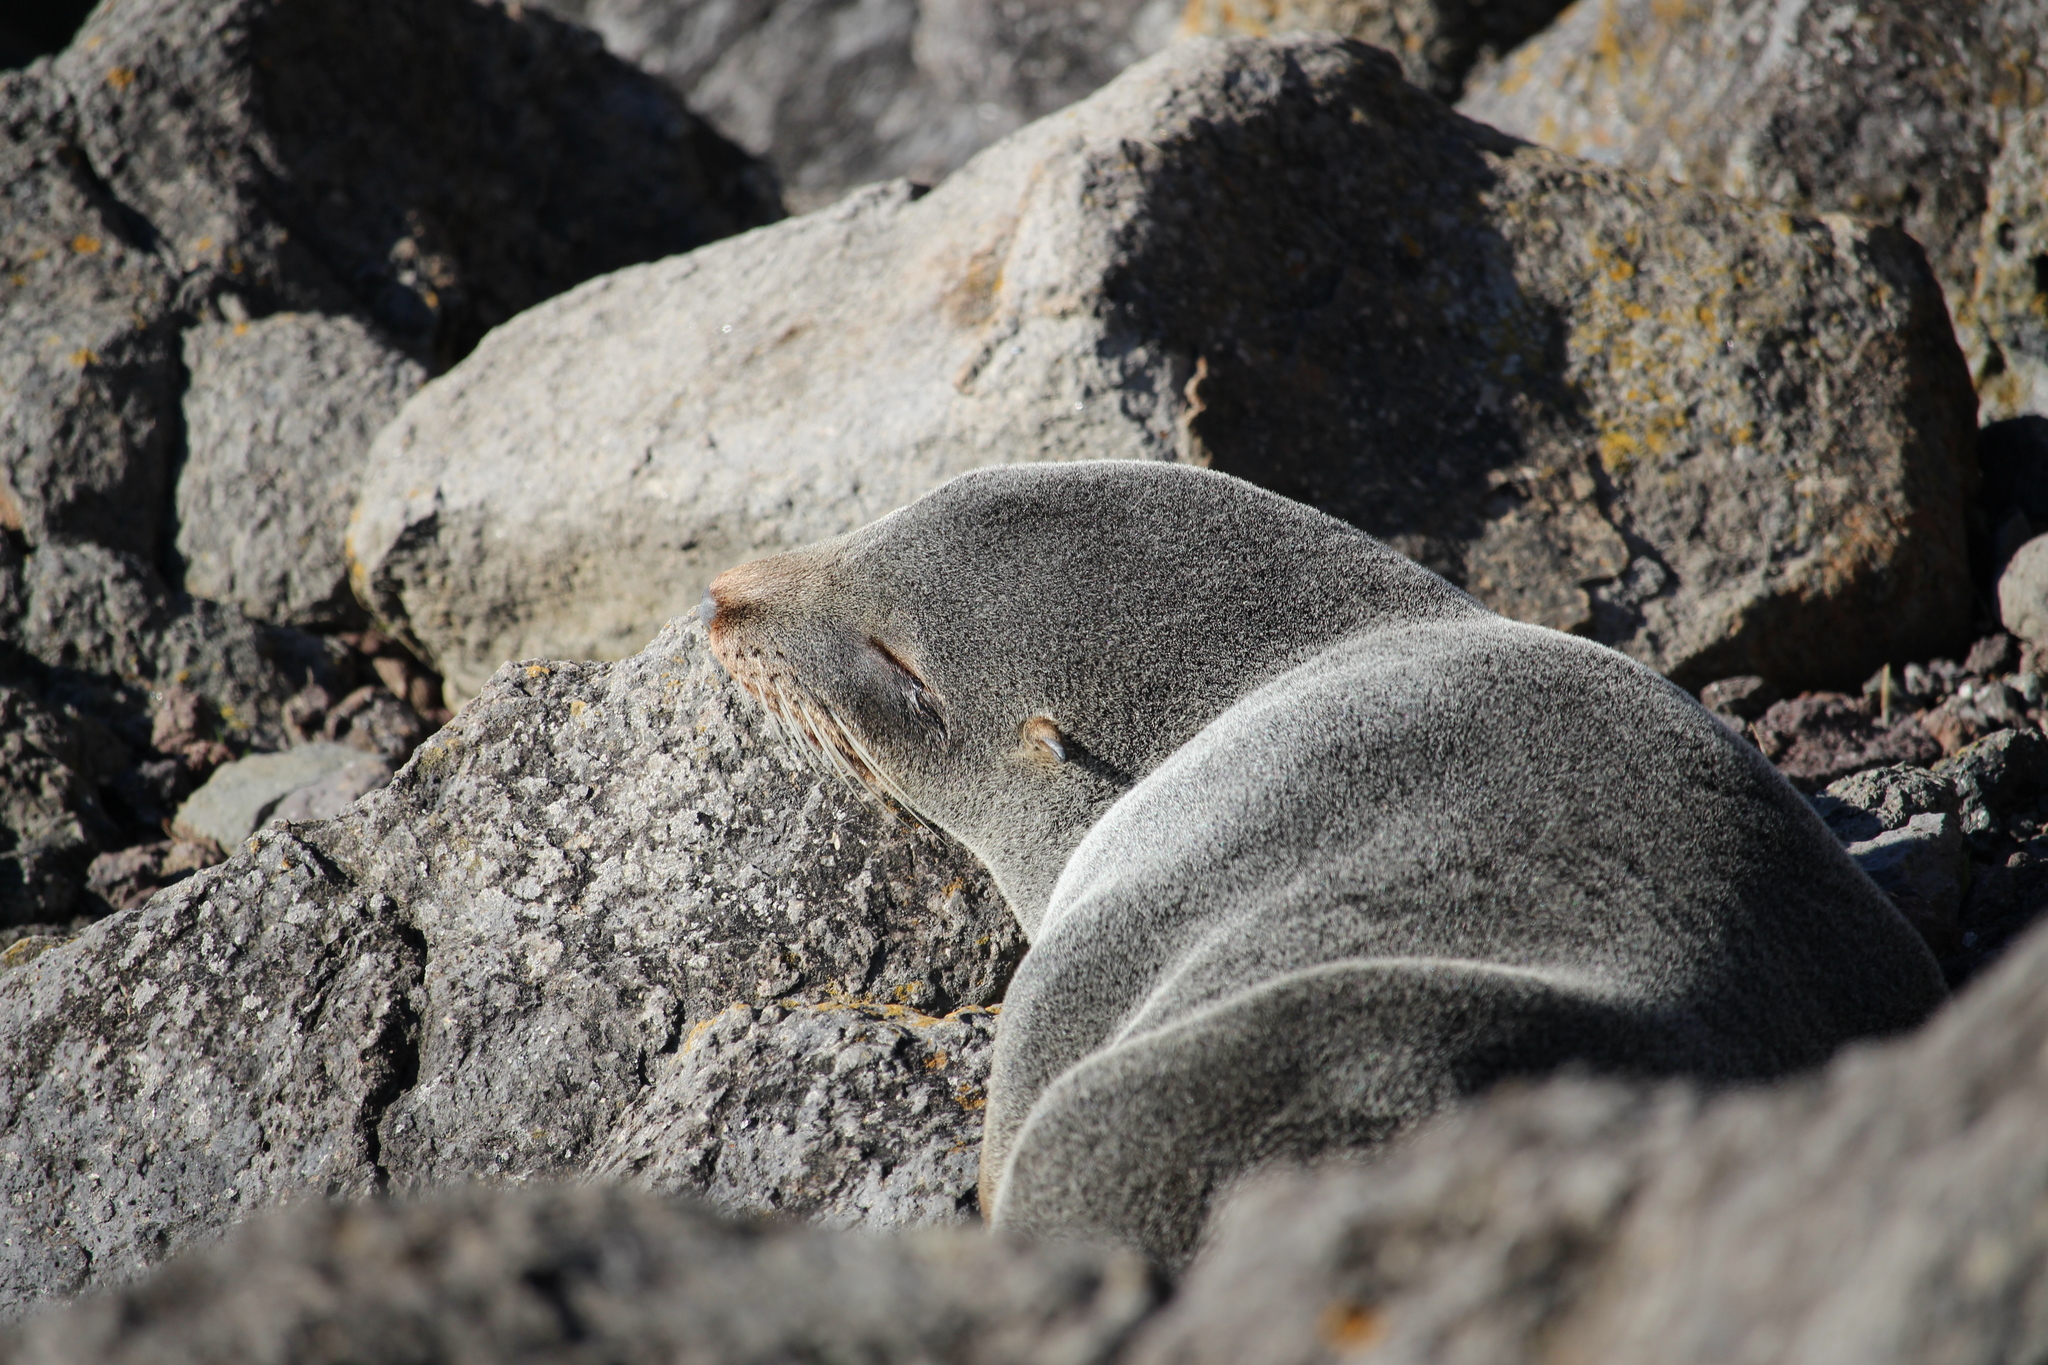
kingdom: Animalia
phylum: Chordata
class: Mammalia
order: Carnivora
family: Otariidae
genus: Arctocephalus
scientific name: Arctocephalus forsteri
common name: New zealand fur seal
